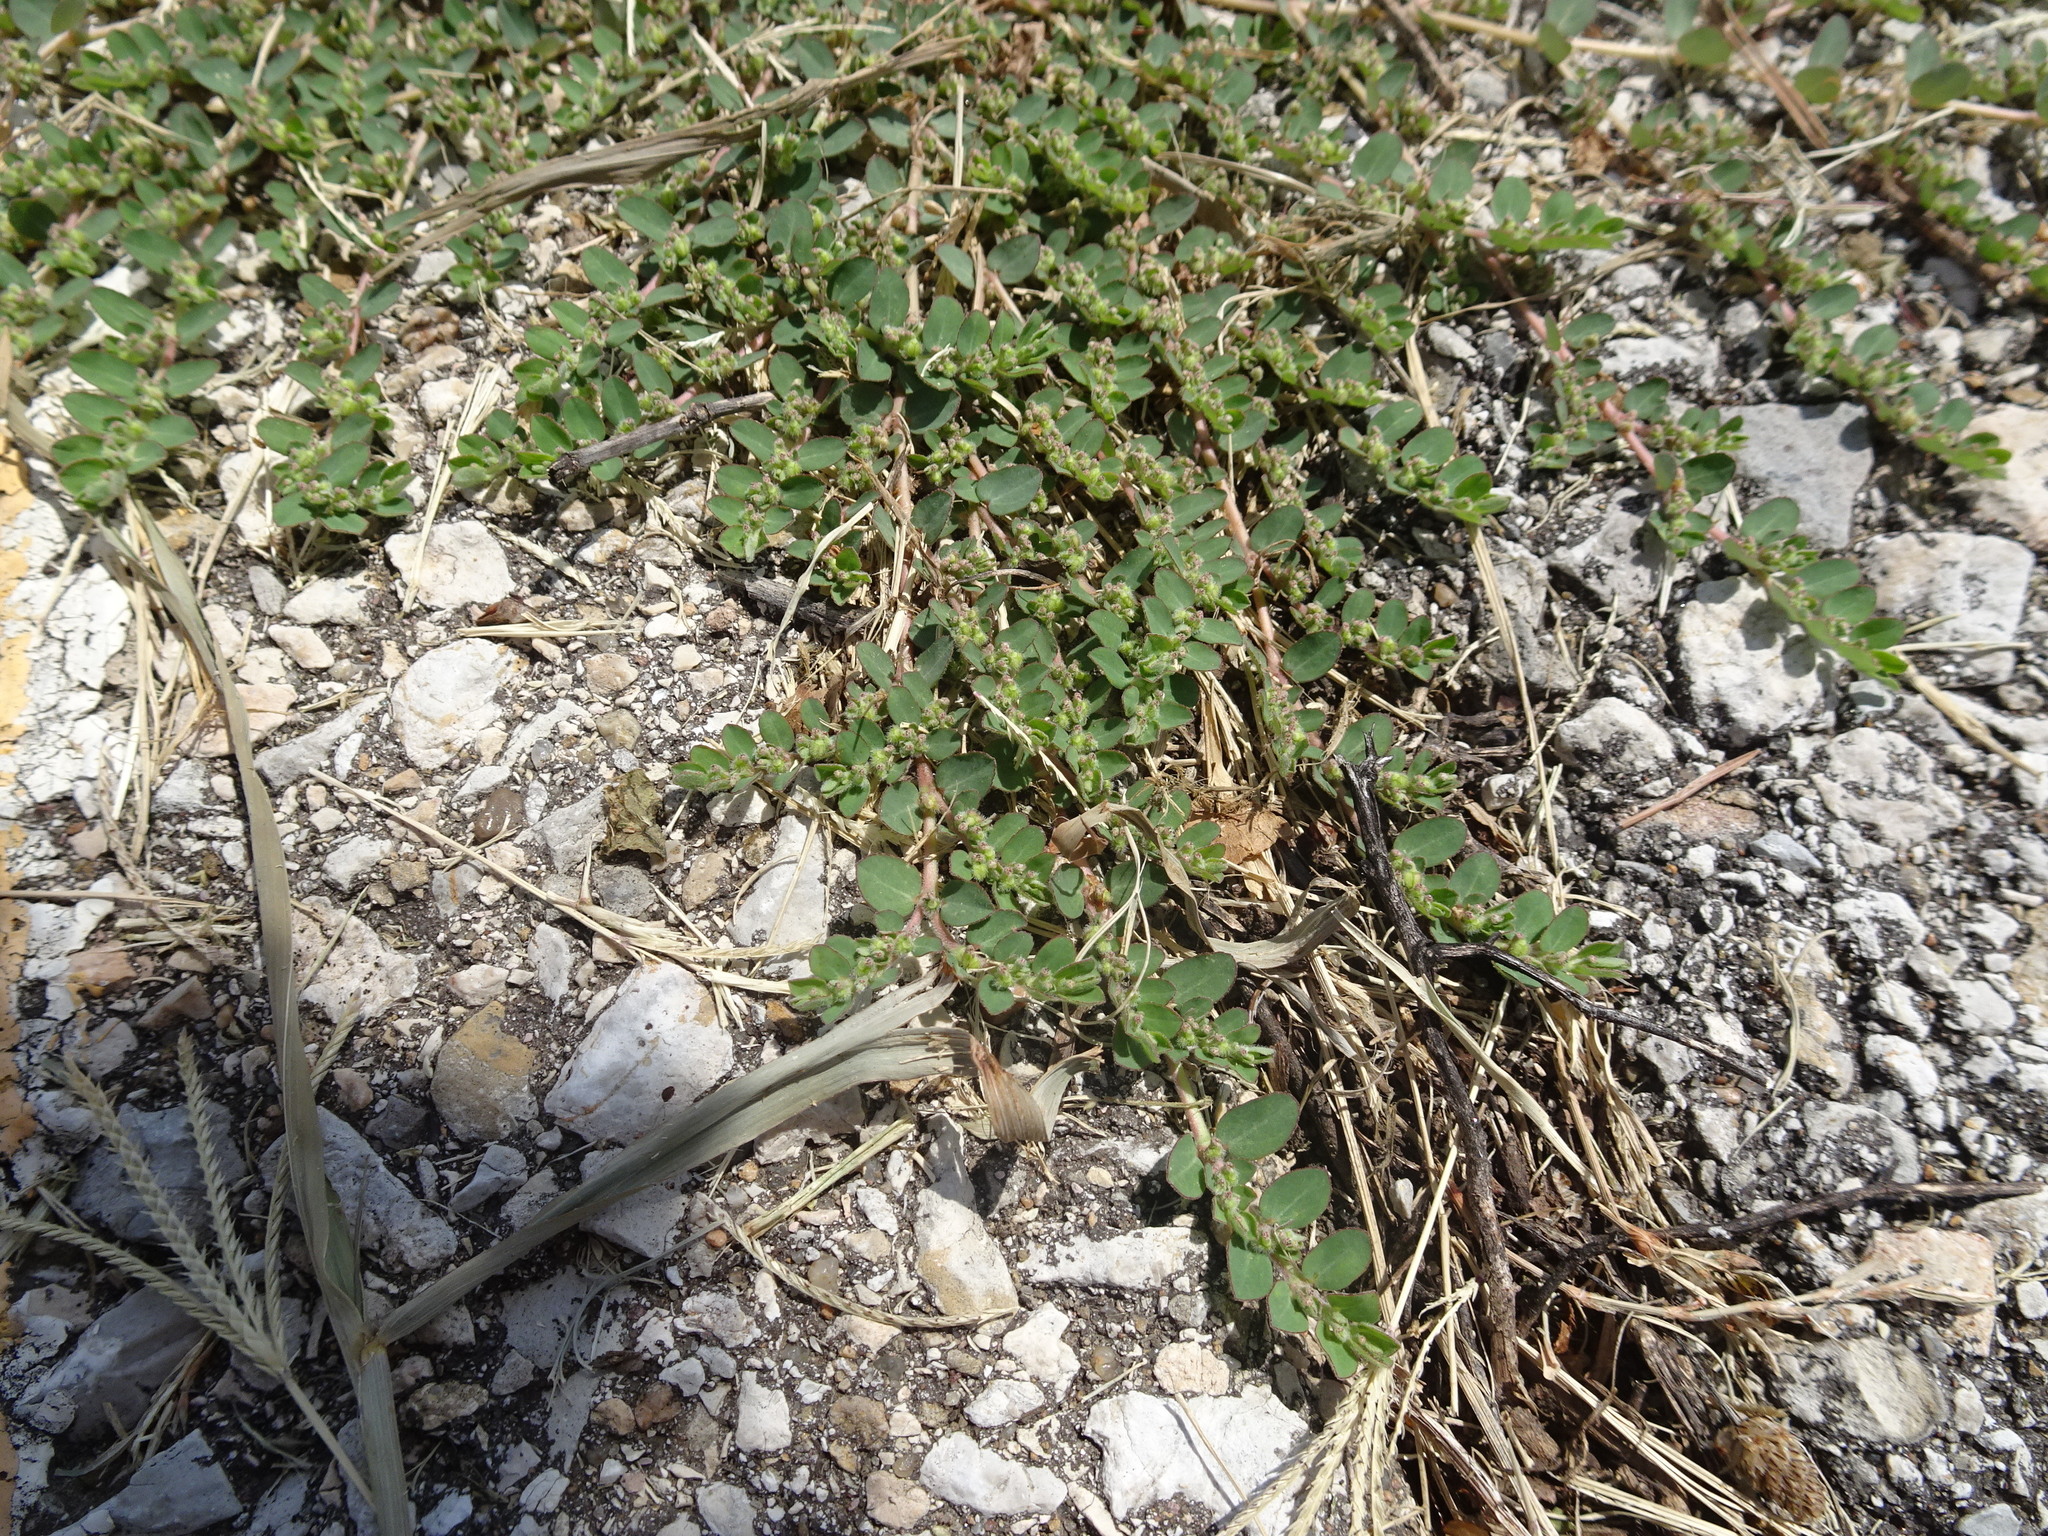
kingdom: Plantae
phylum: Tracheophyta
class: Magnoliopsida
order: Malpighiales
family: Euphorbiaceae
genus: Euphorbia
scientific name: Euphorbia prostrata
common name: Prostrate sandmat
